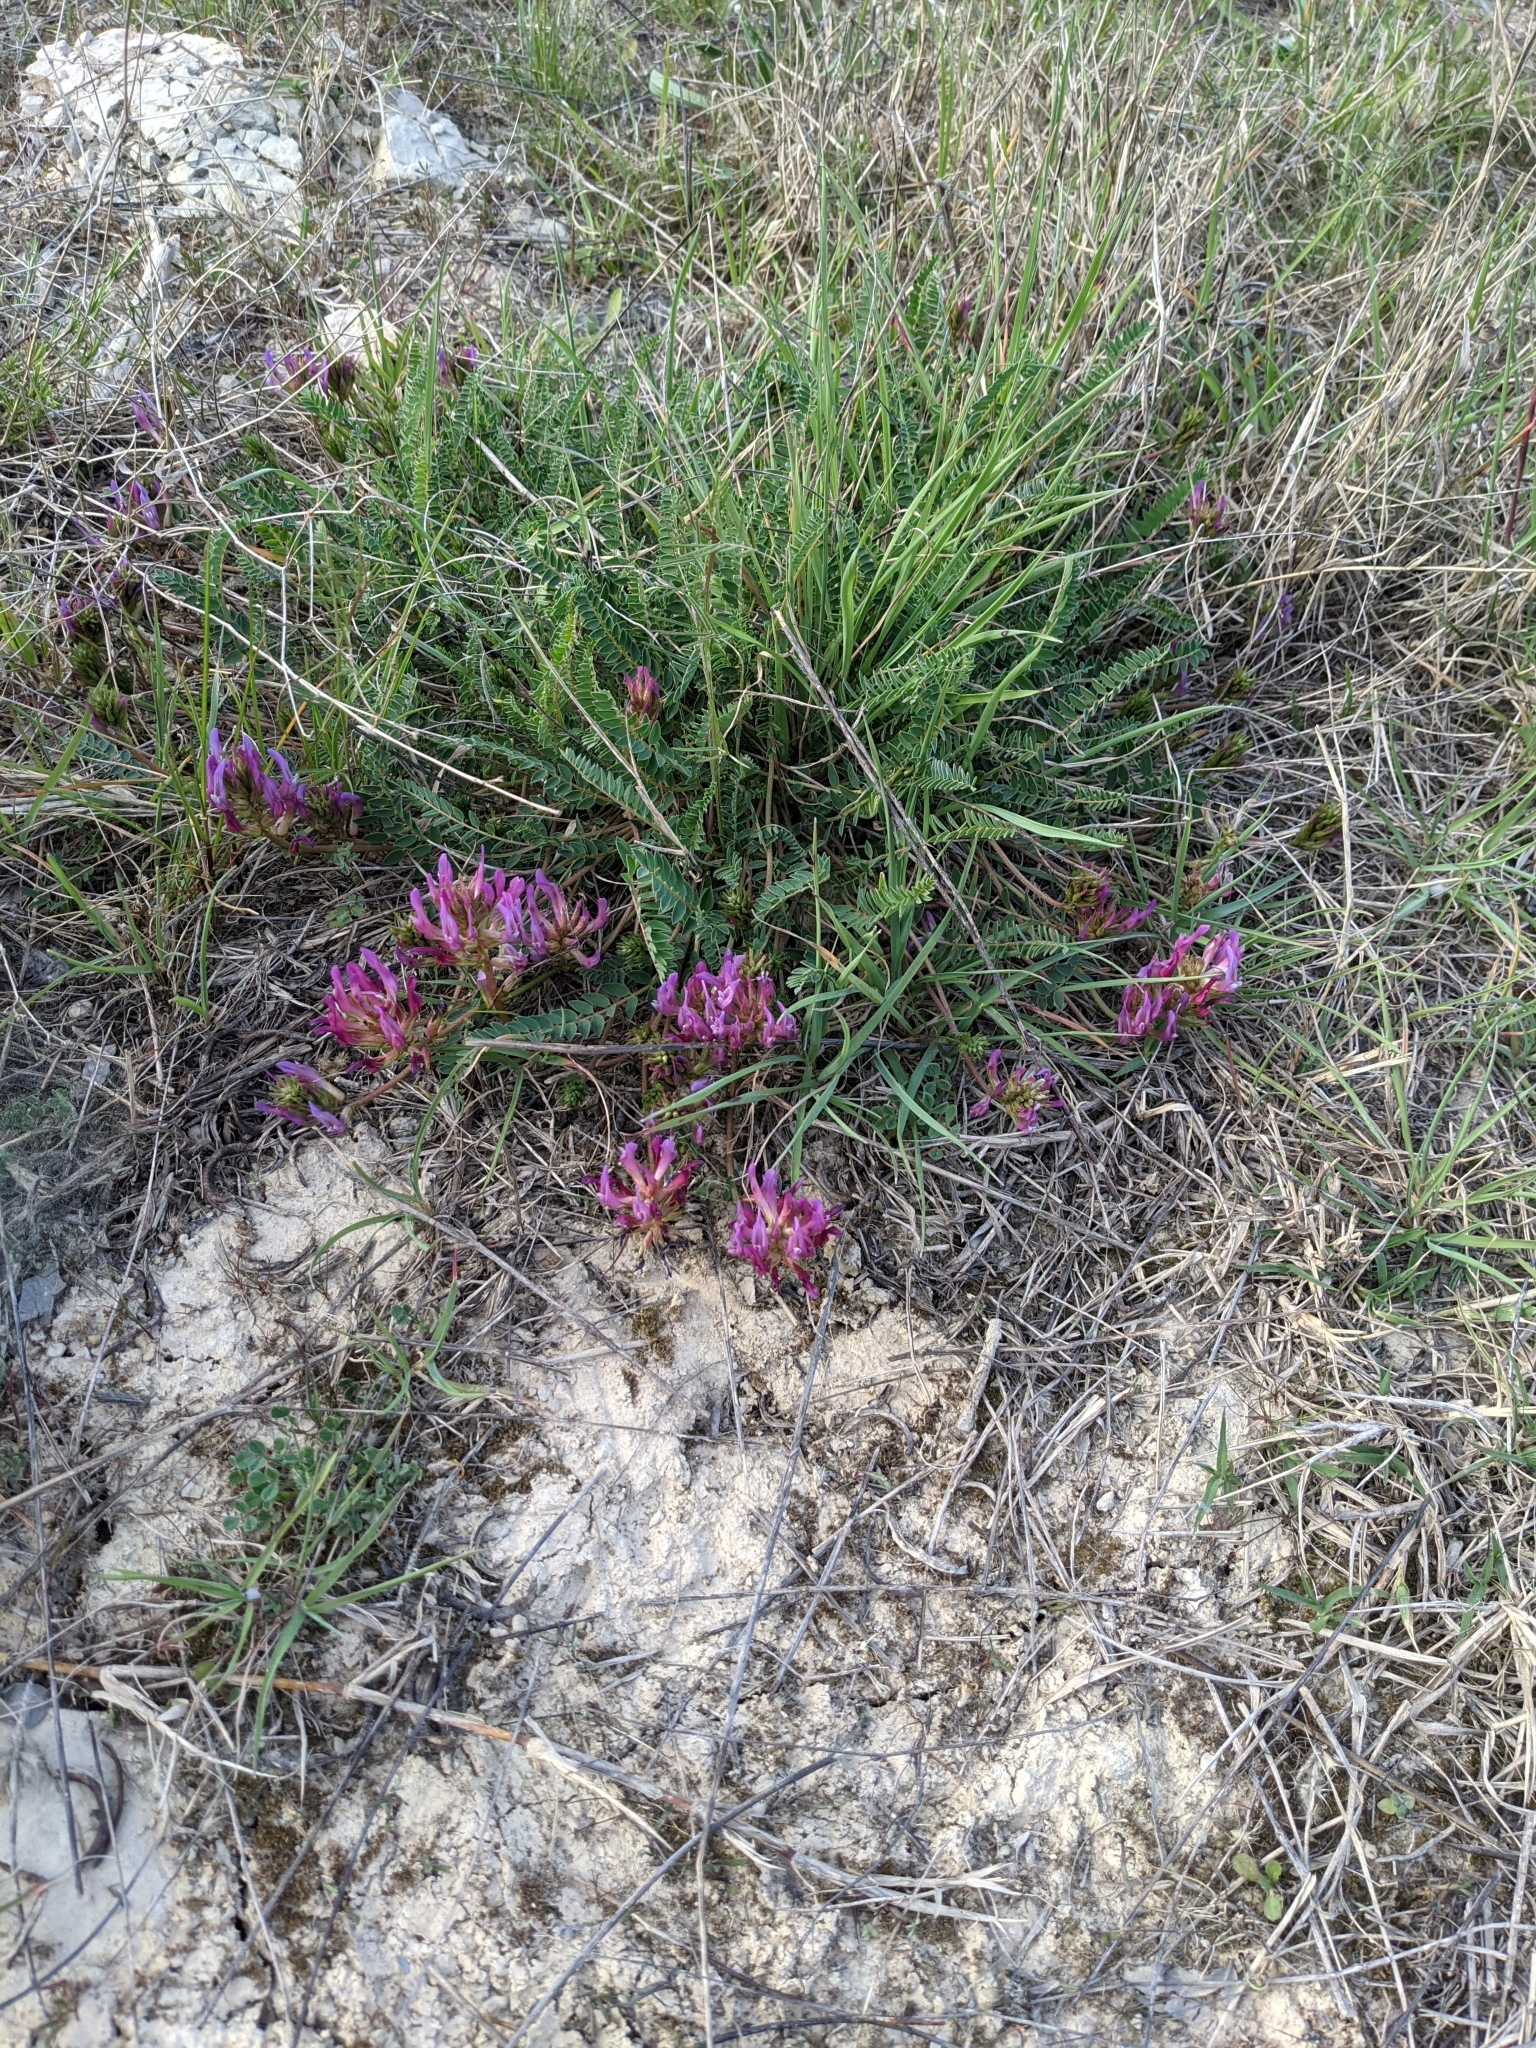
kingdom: Plantae
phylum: Tracheophyta
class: Magnoliopsida
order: Fabales
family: Fabaceae
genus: Astragalus
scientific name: Astragalus monspessulanus
